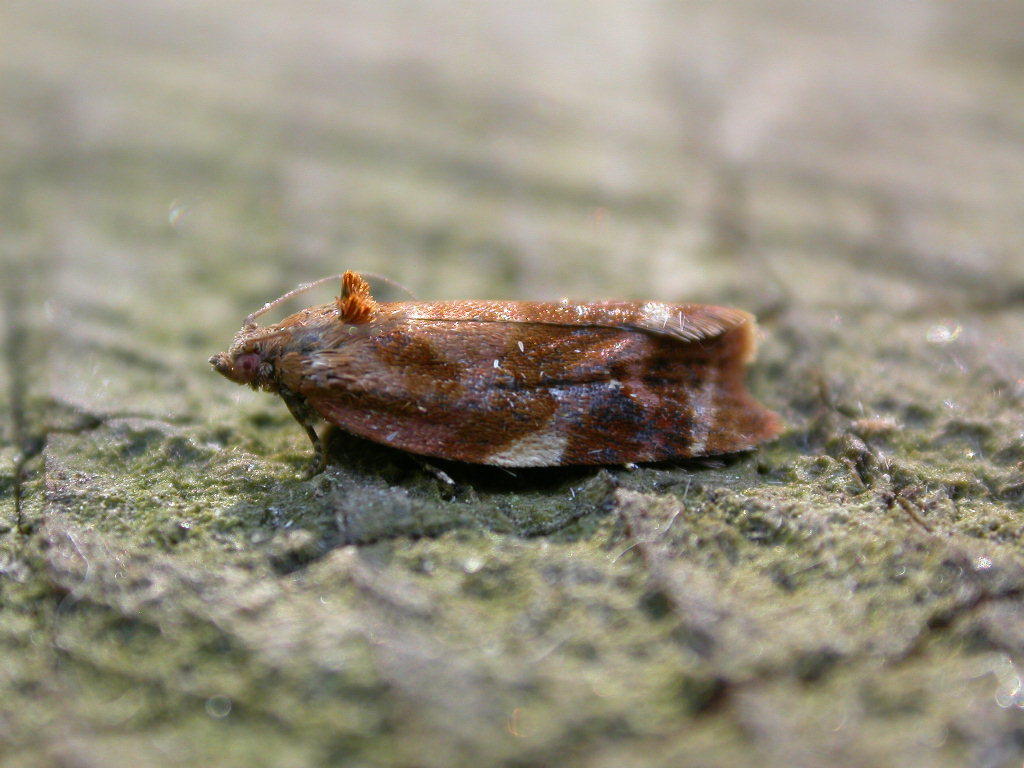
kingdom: Animalia
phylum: Arthropoda
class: Insecta
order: Lepidoptera
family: Tortricidae
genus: Ditula
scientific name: Ditula angustiorana
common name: Red-barred tortrix
